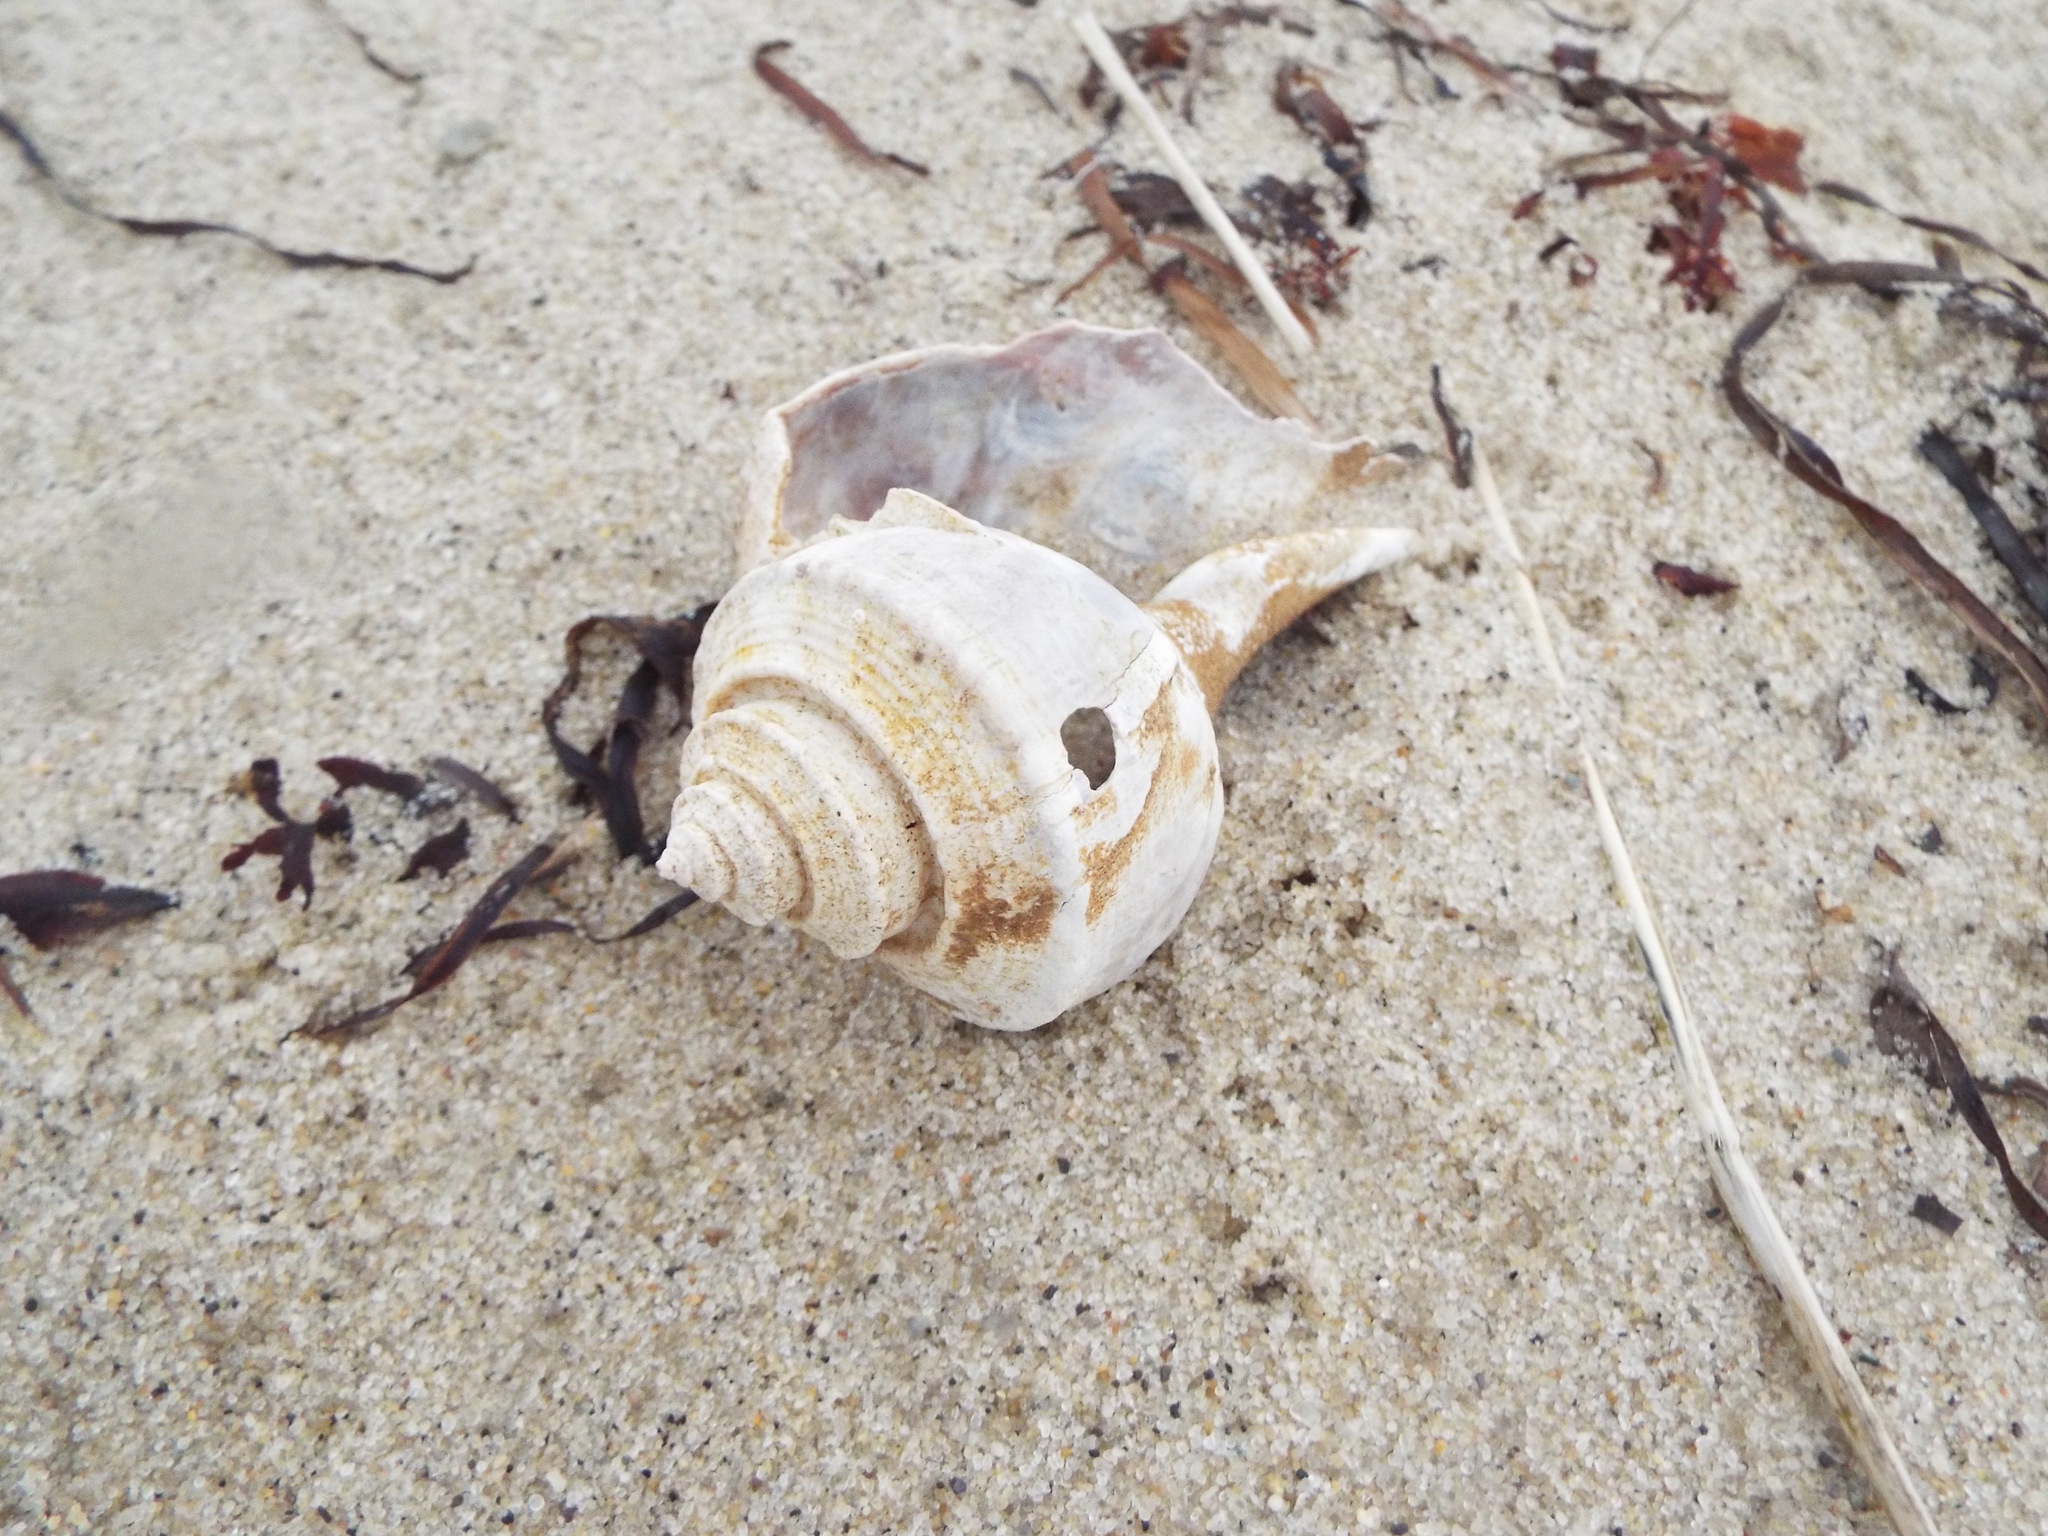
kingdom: Animalia
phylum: Mollusca
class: Gastropoda
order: Neogastropoda
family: Busyconidae
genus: Busycotypus
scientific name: Busycotypus canaliculatus
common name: Channeled whelk
